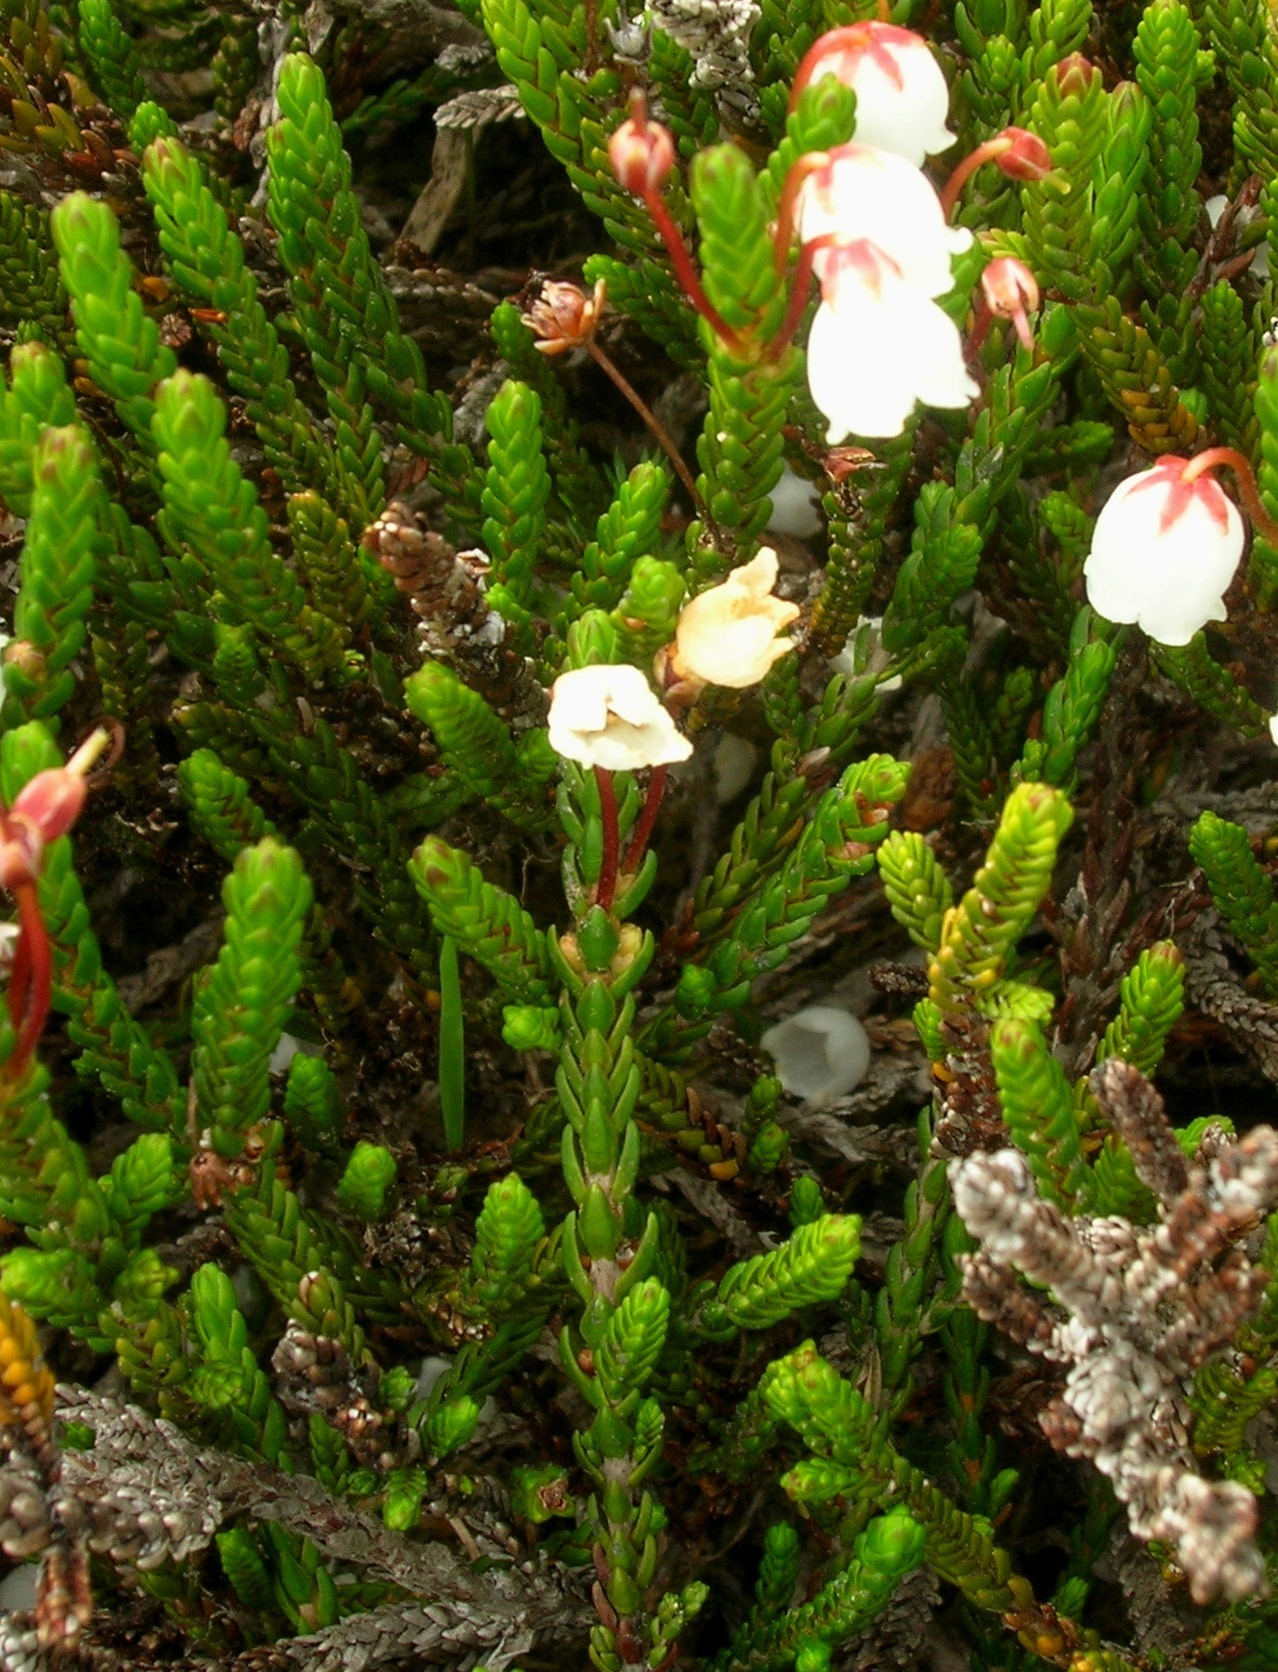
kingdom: Plantae
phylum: Tracheophyta
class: Magnoliopsida
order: Ericales
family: Ericaceae
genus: Cassiope
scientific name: Cassiope mertensiana
